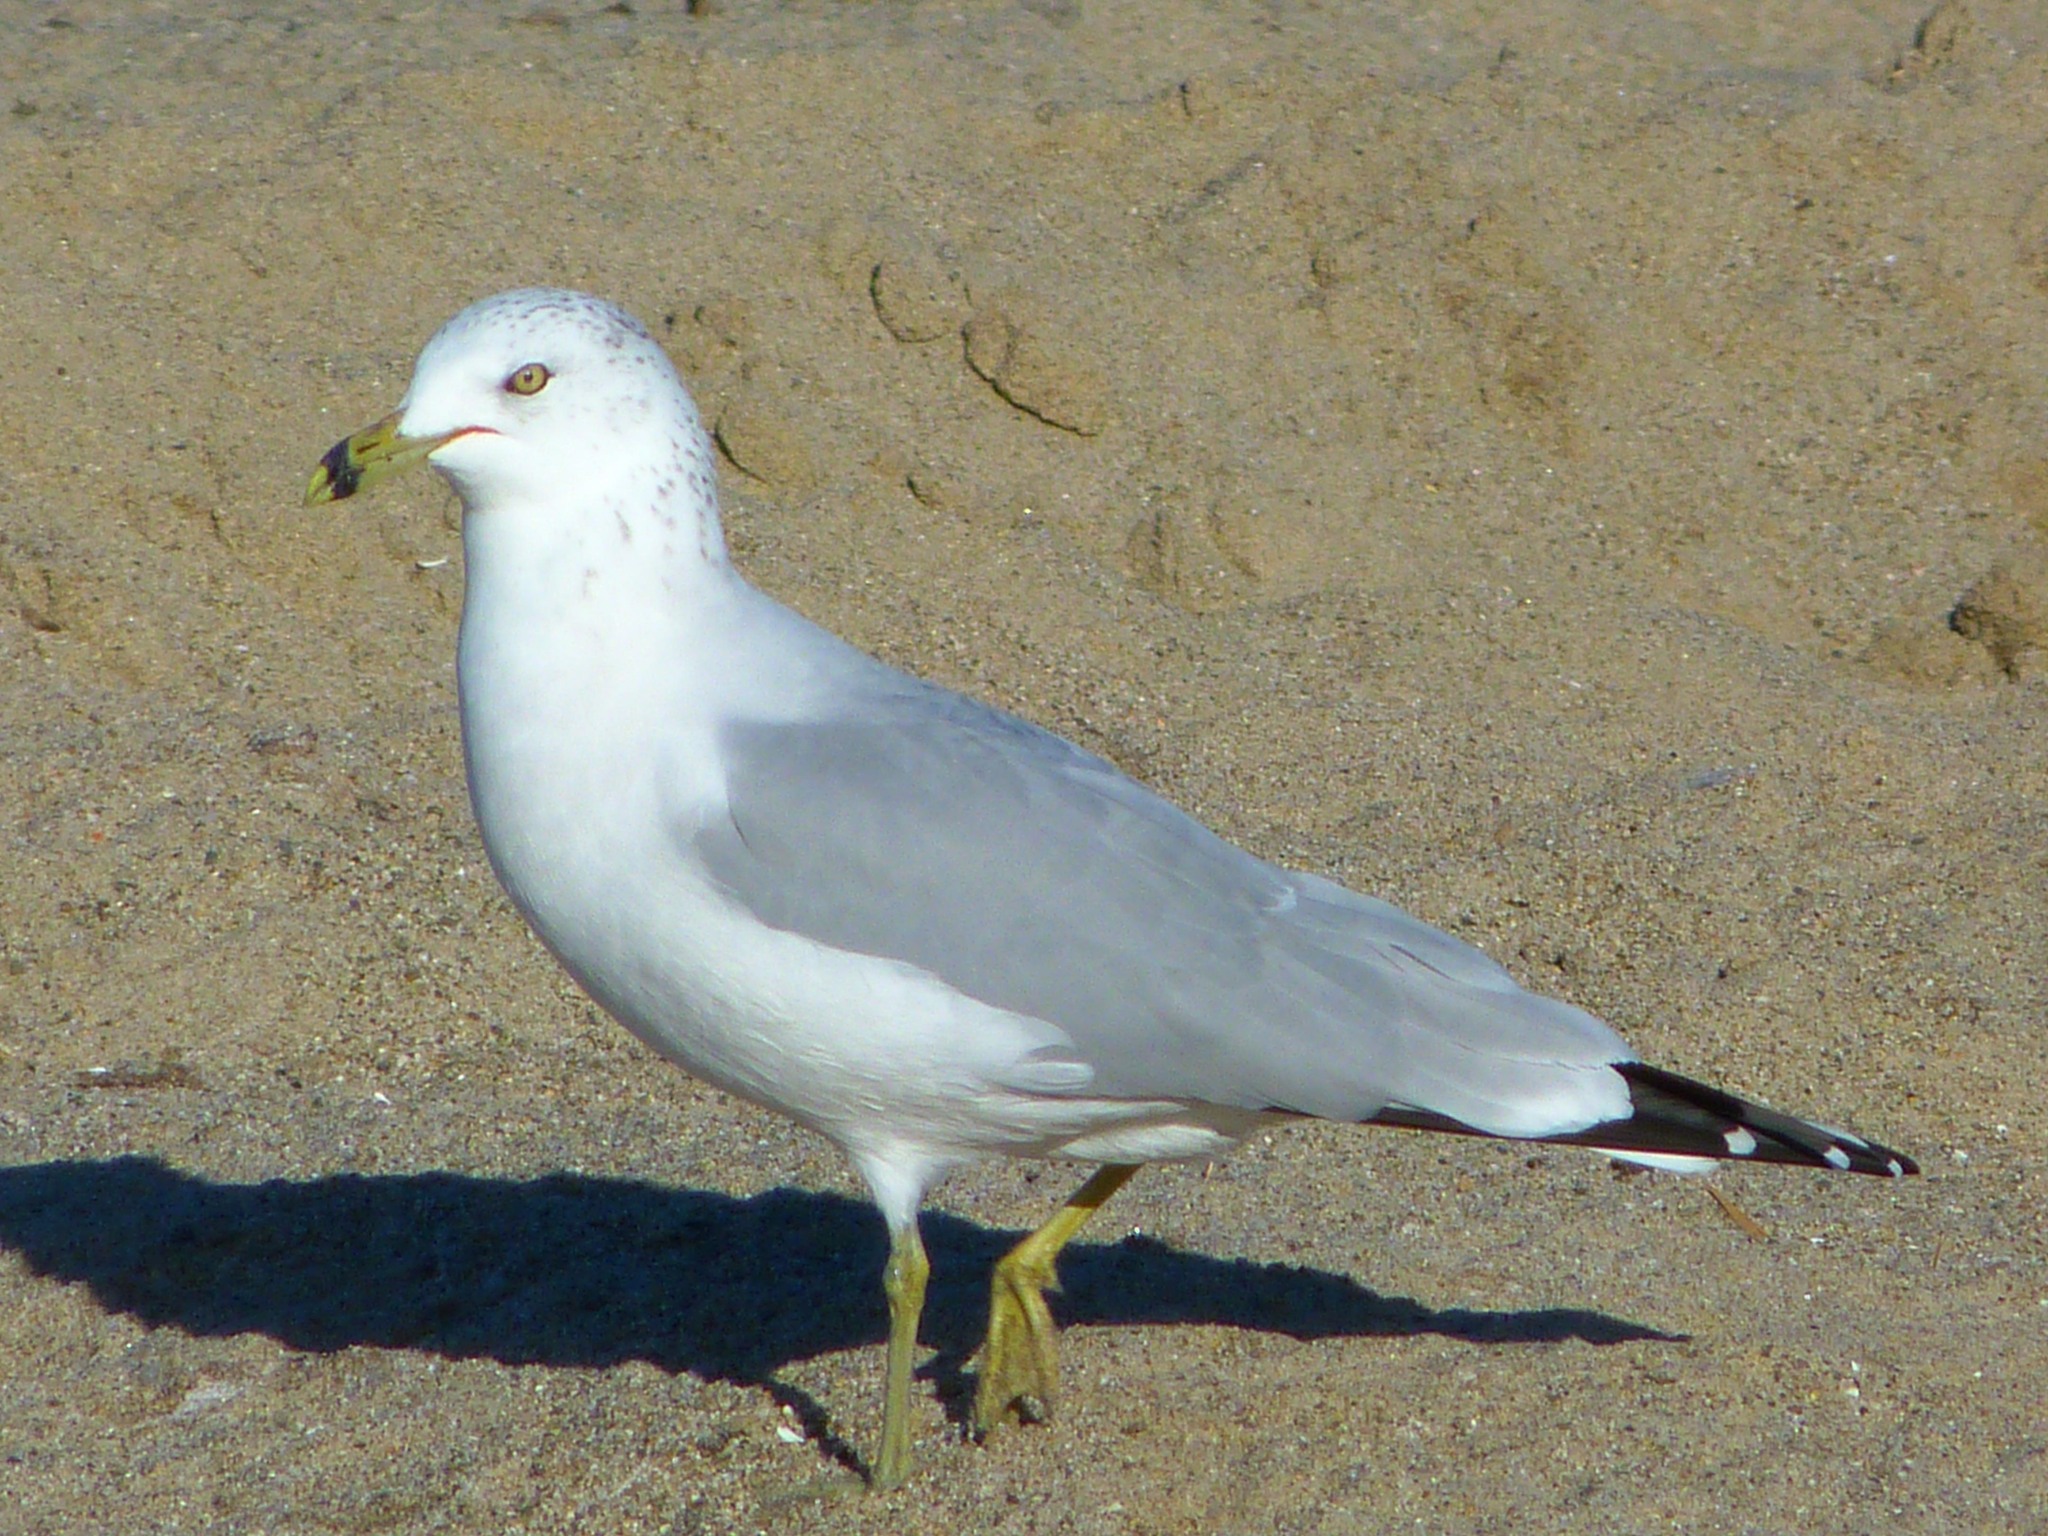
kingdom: Animalia
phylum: Chordata
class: Aves
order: Charadriiformes
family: Laridae
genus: Larus
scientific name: Larus delawarensis
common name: Ring-billed gull
